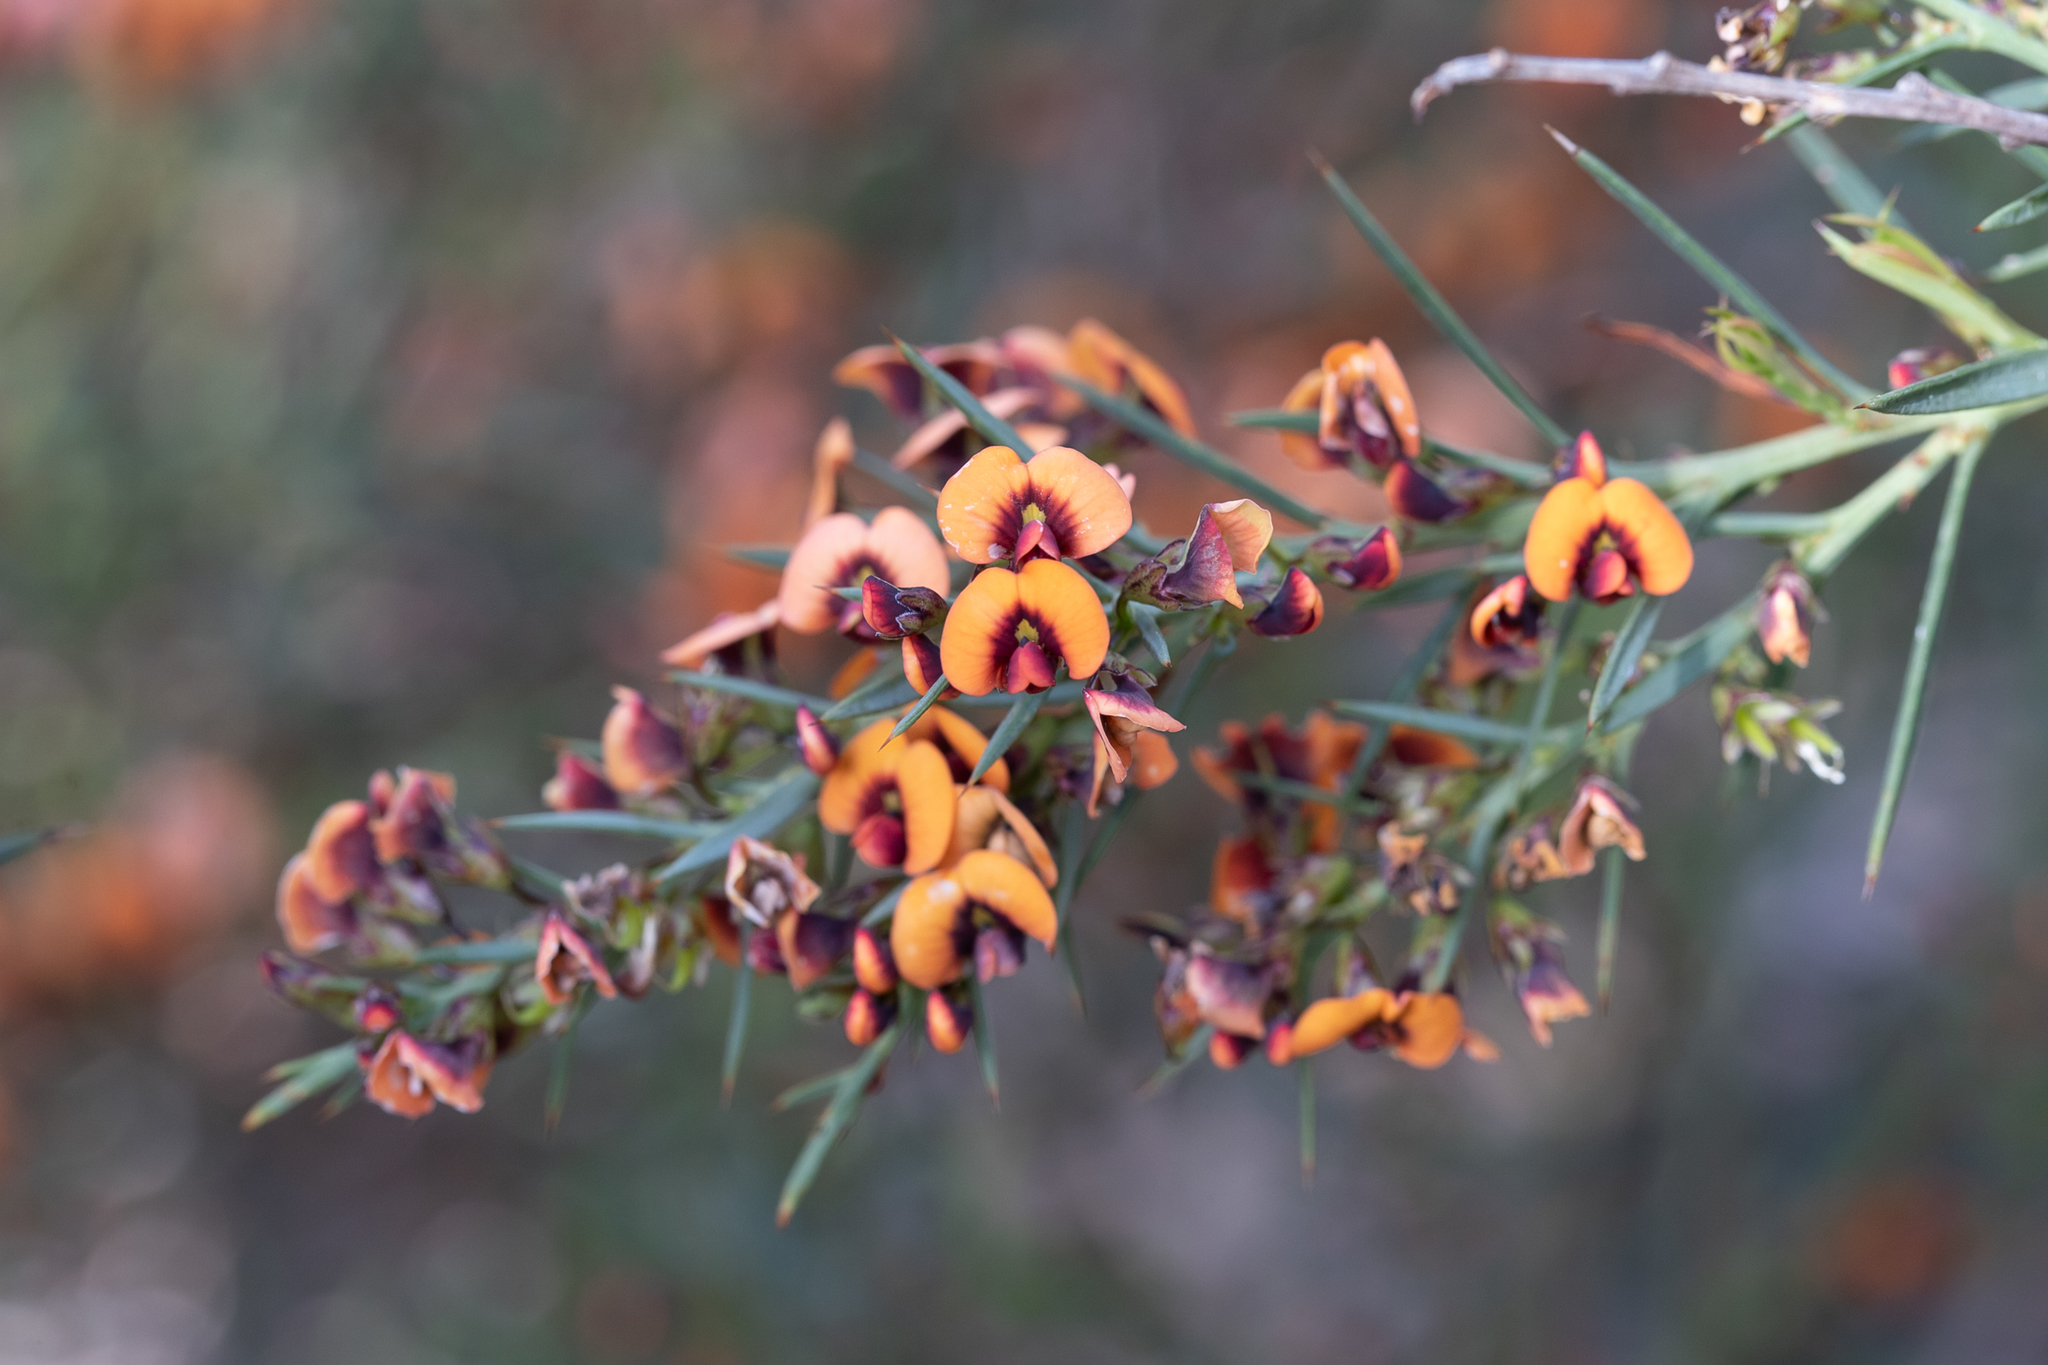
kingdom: Plantae
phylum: Tracheophyta
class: Magnoliopsida
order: Fabales
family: Fabaceae
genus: Daviesia
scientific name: Daviesia ulicifolia
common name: Gorse bitter-pea
